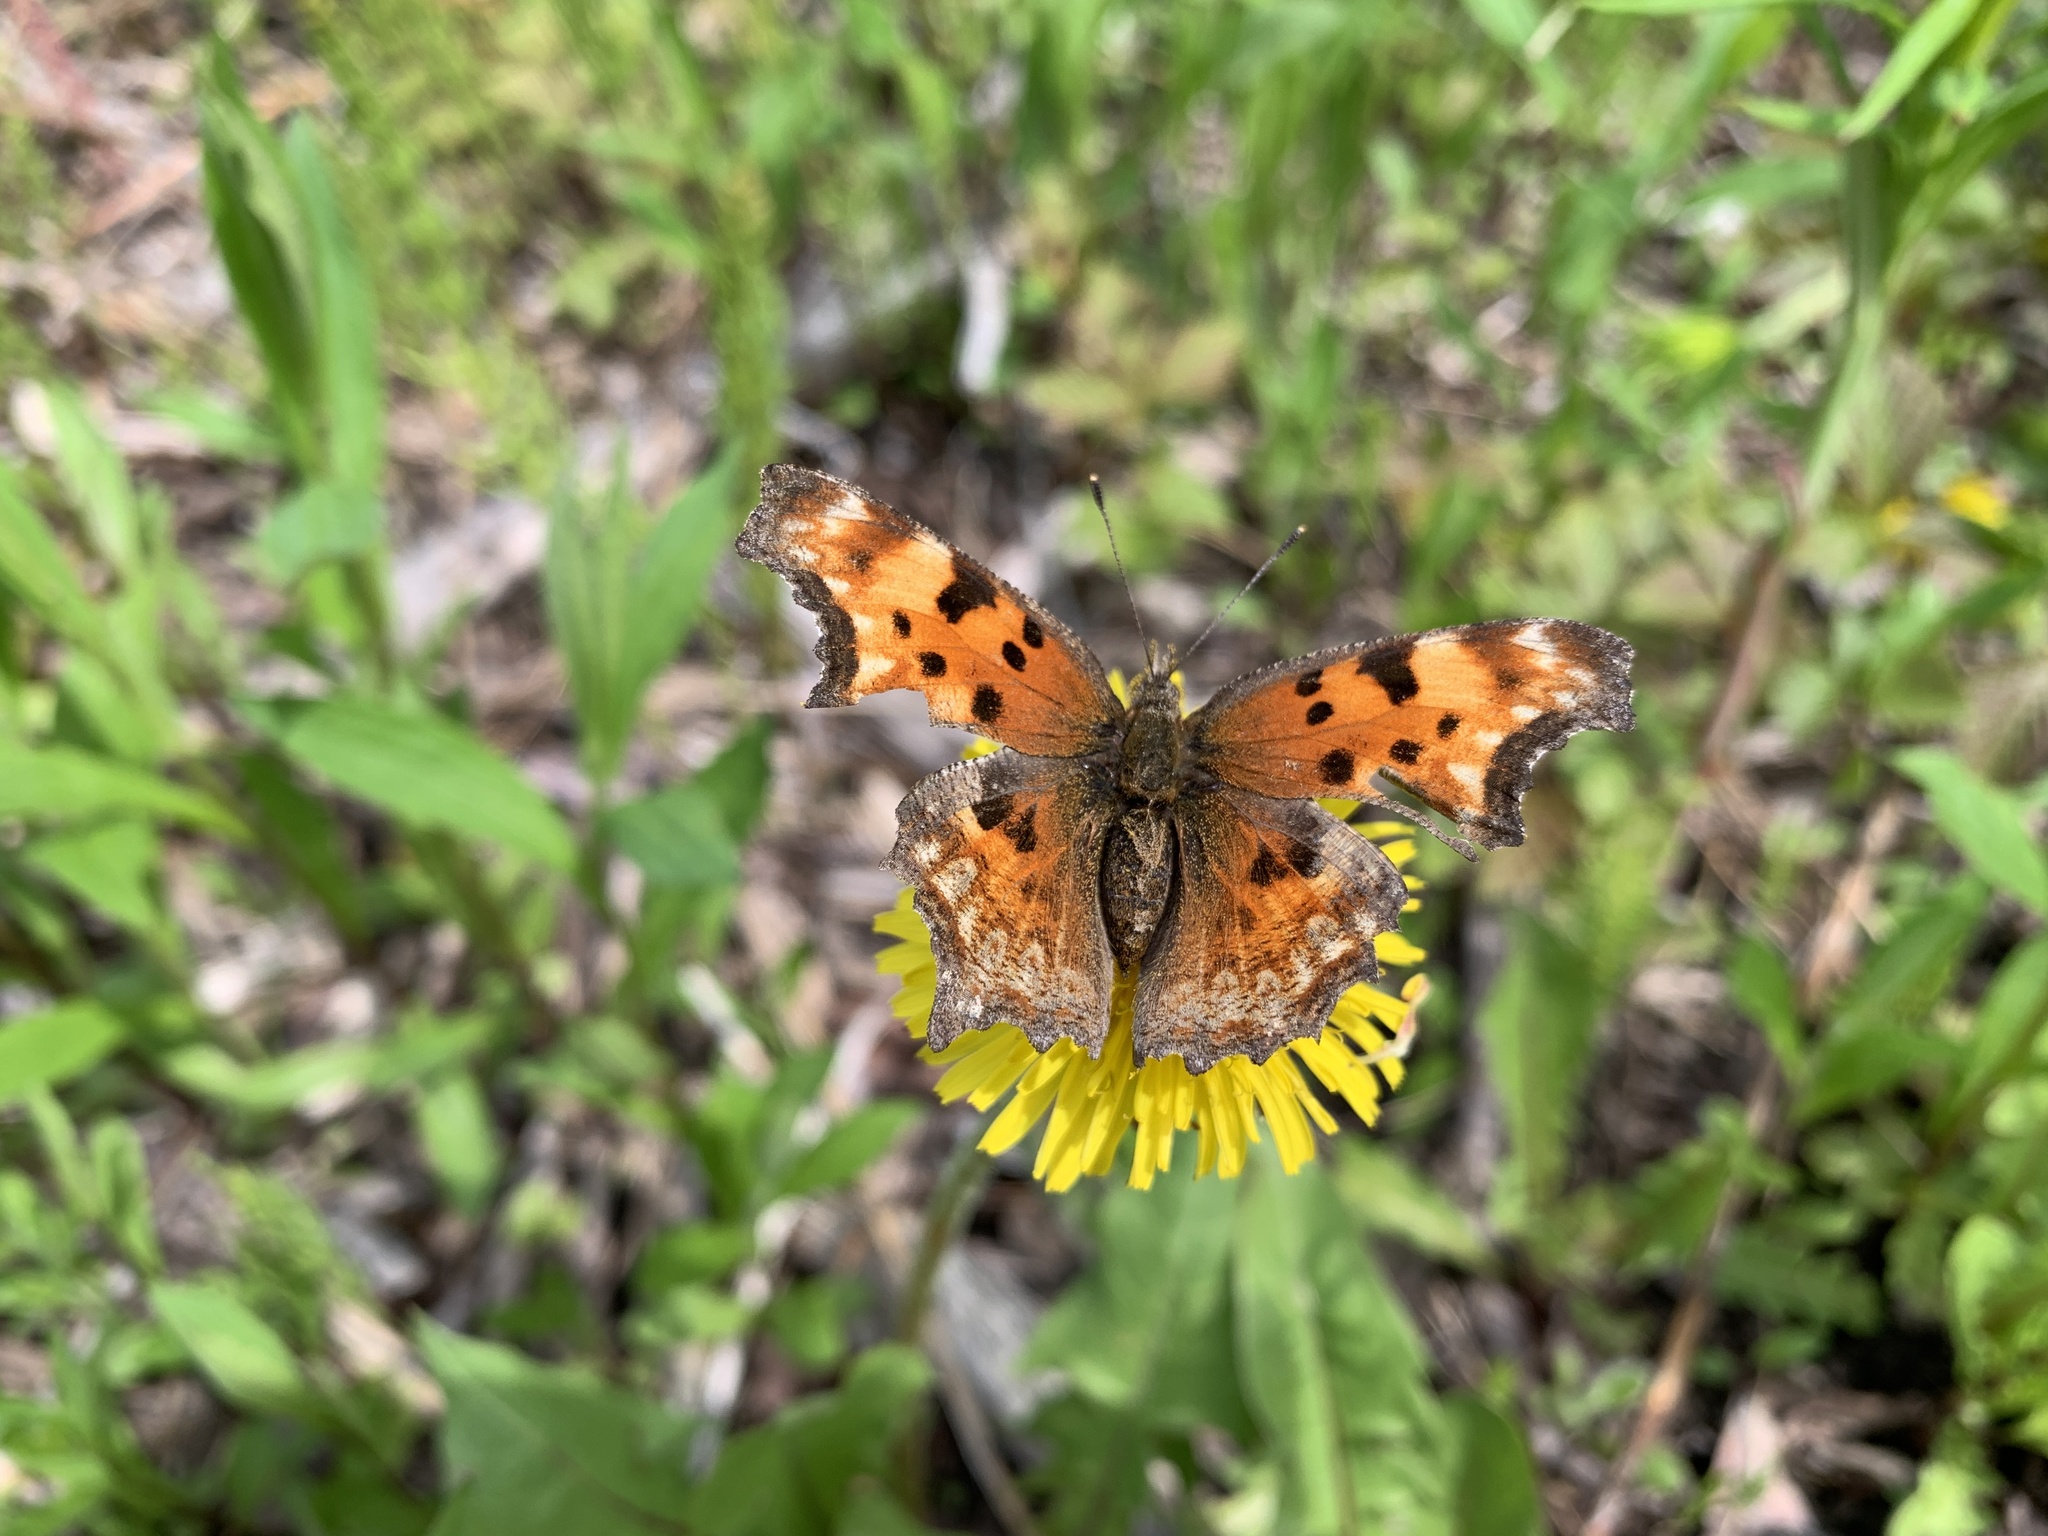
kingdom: Animalia
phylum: Arthropoda
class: Insecta
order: Lepidoptera
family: Nymphalidae
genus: Polygonia
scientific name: Polygonia gracilis
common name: Hoary comma
